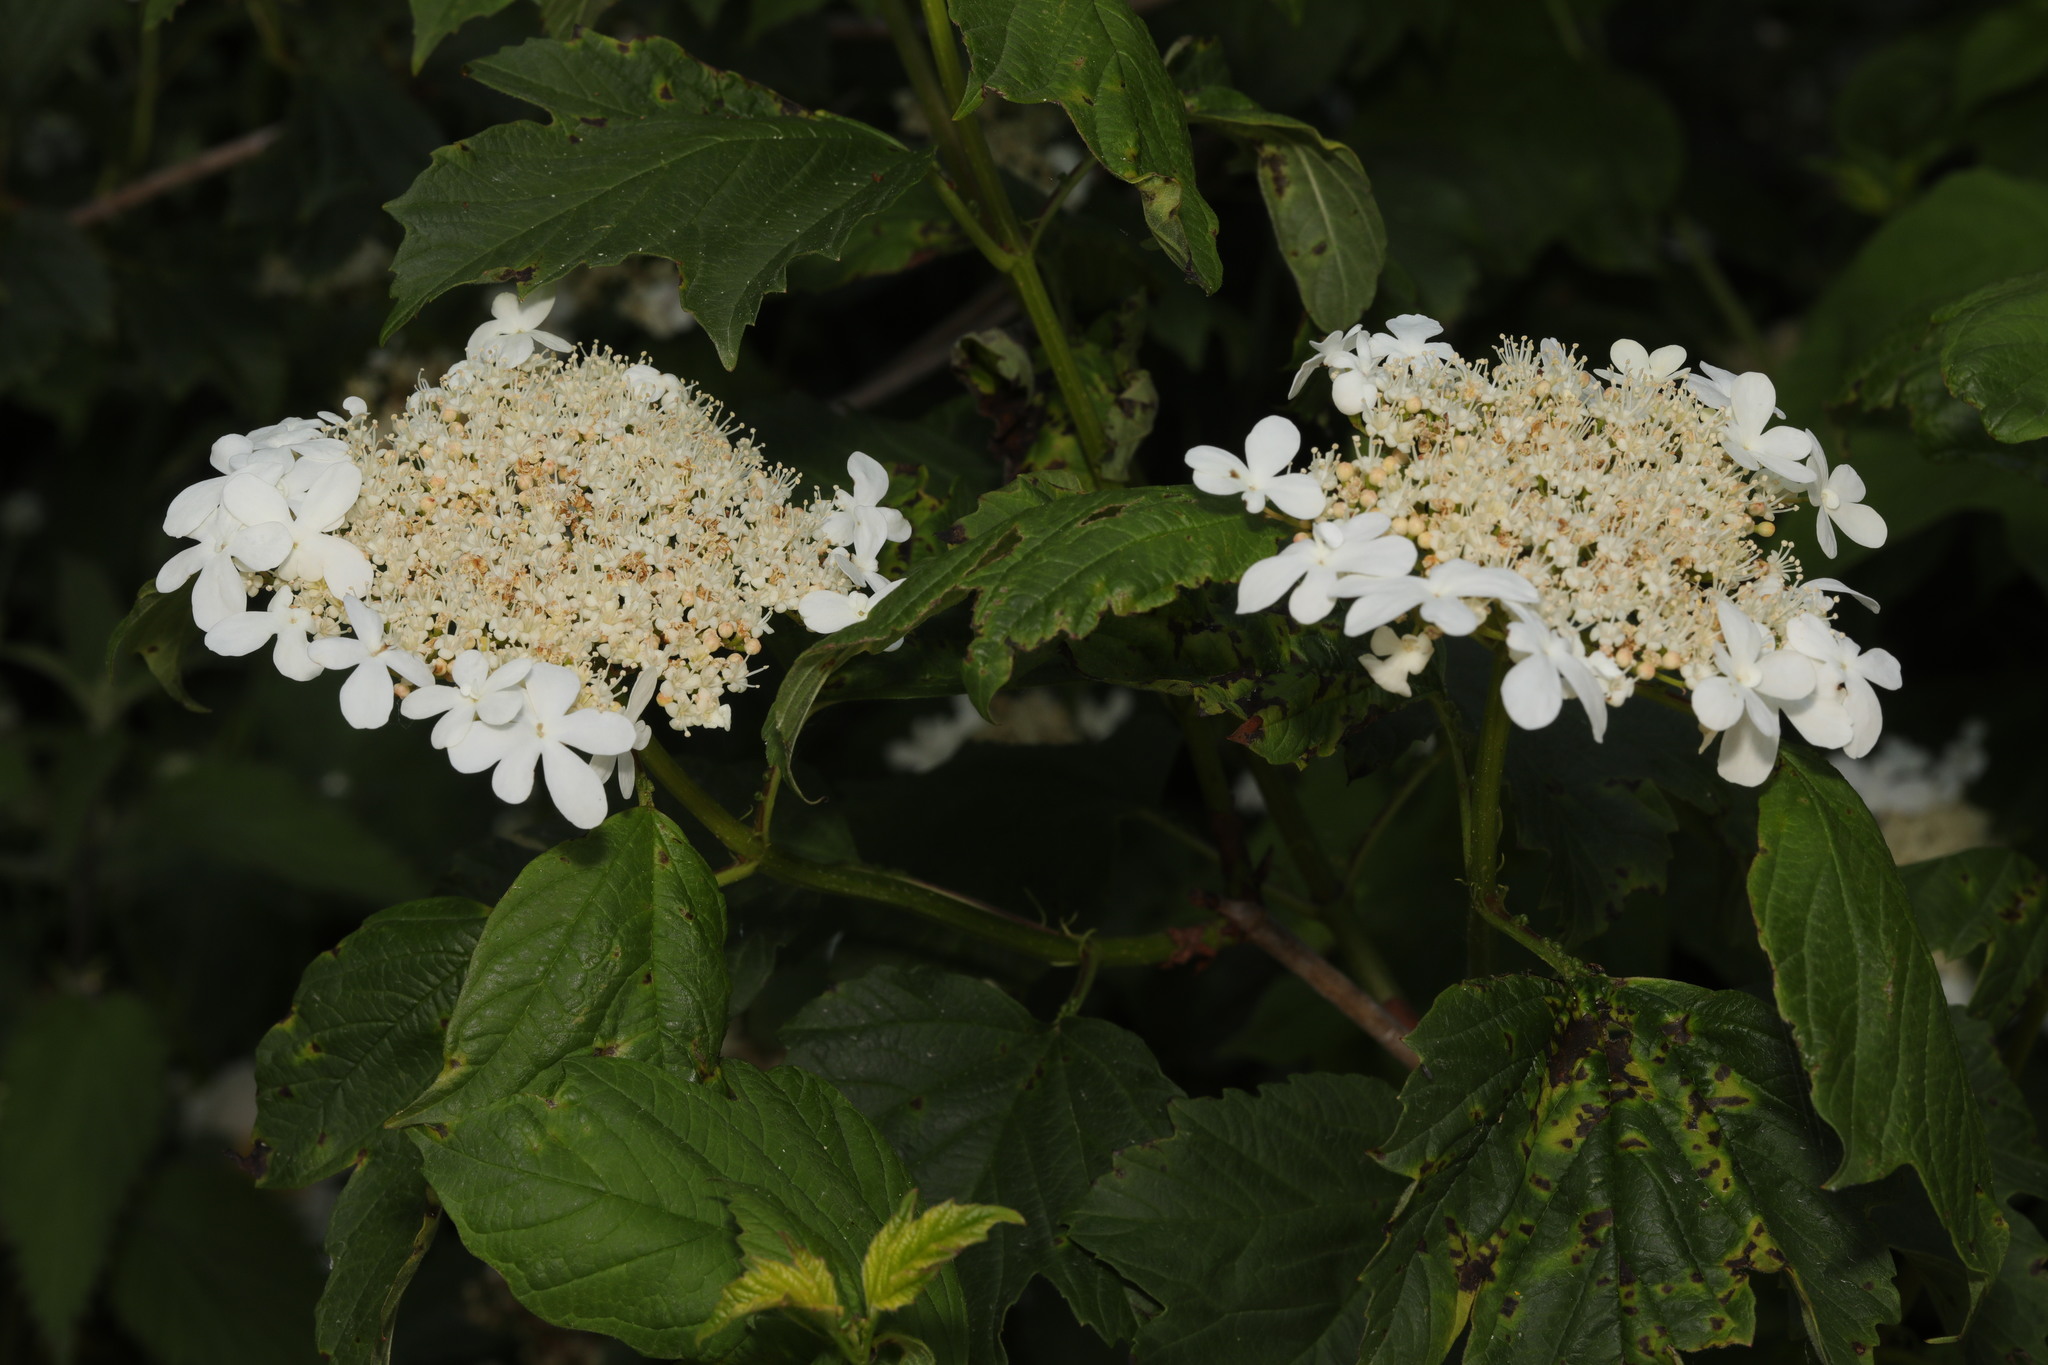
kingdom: Plantae
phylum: Tracheophyta
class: Magnoliopsida
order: Dipsacales
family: Viburnaceae
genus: Viburnum
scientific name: Viburnum opulus
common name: Guelder-rose
